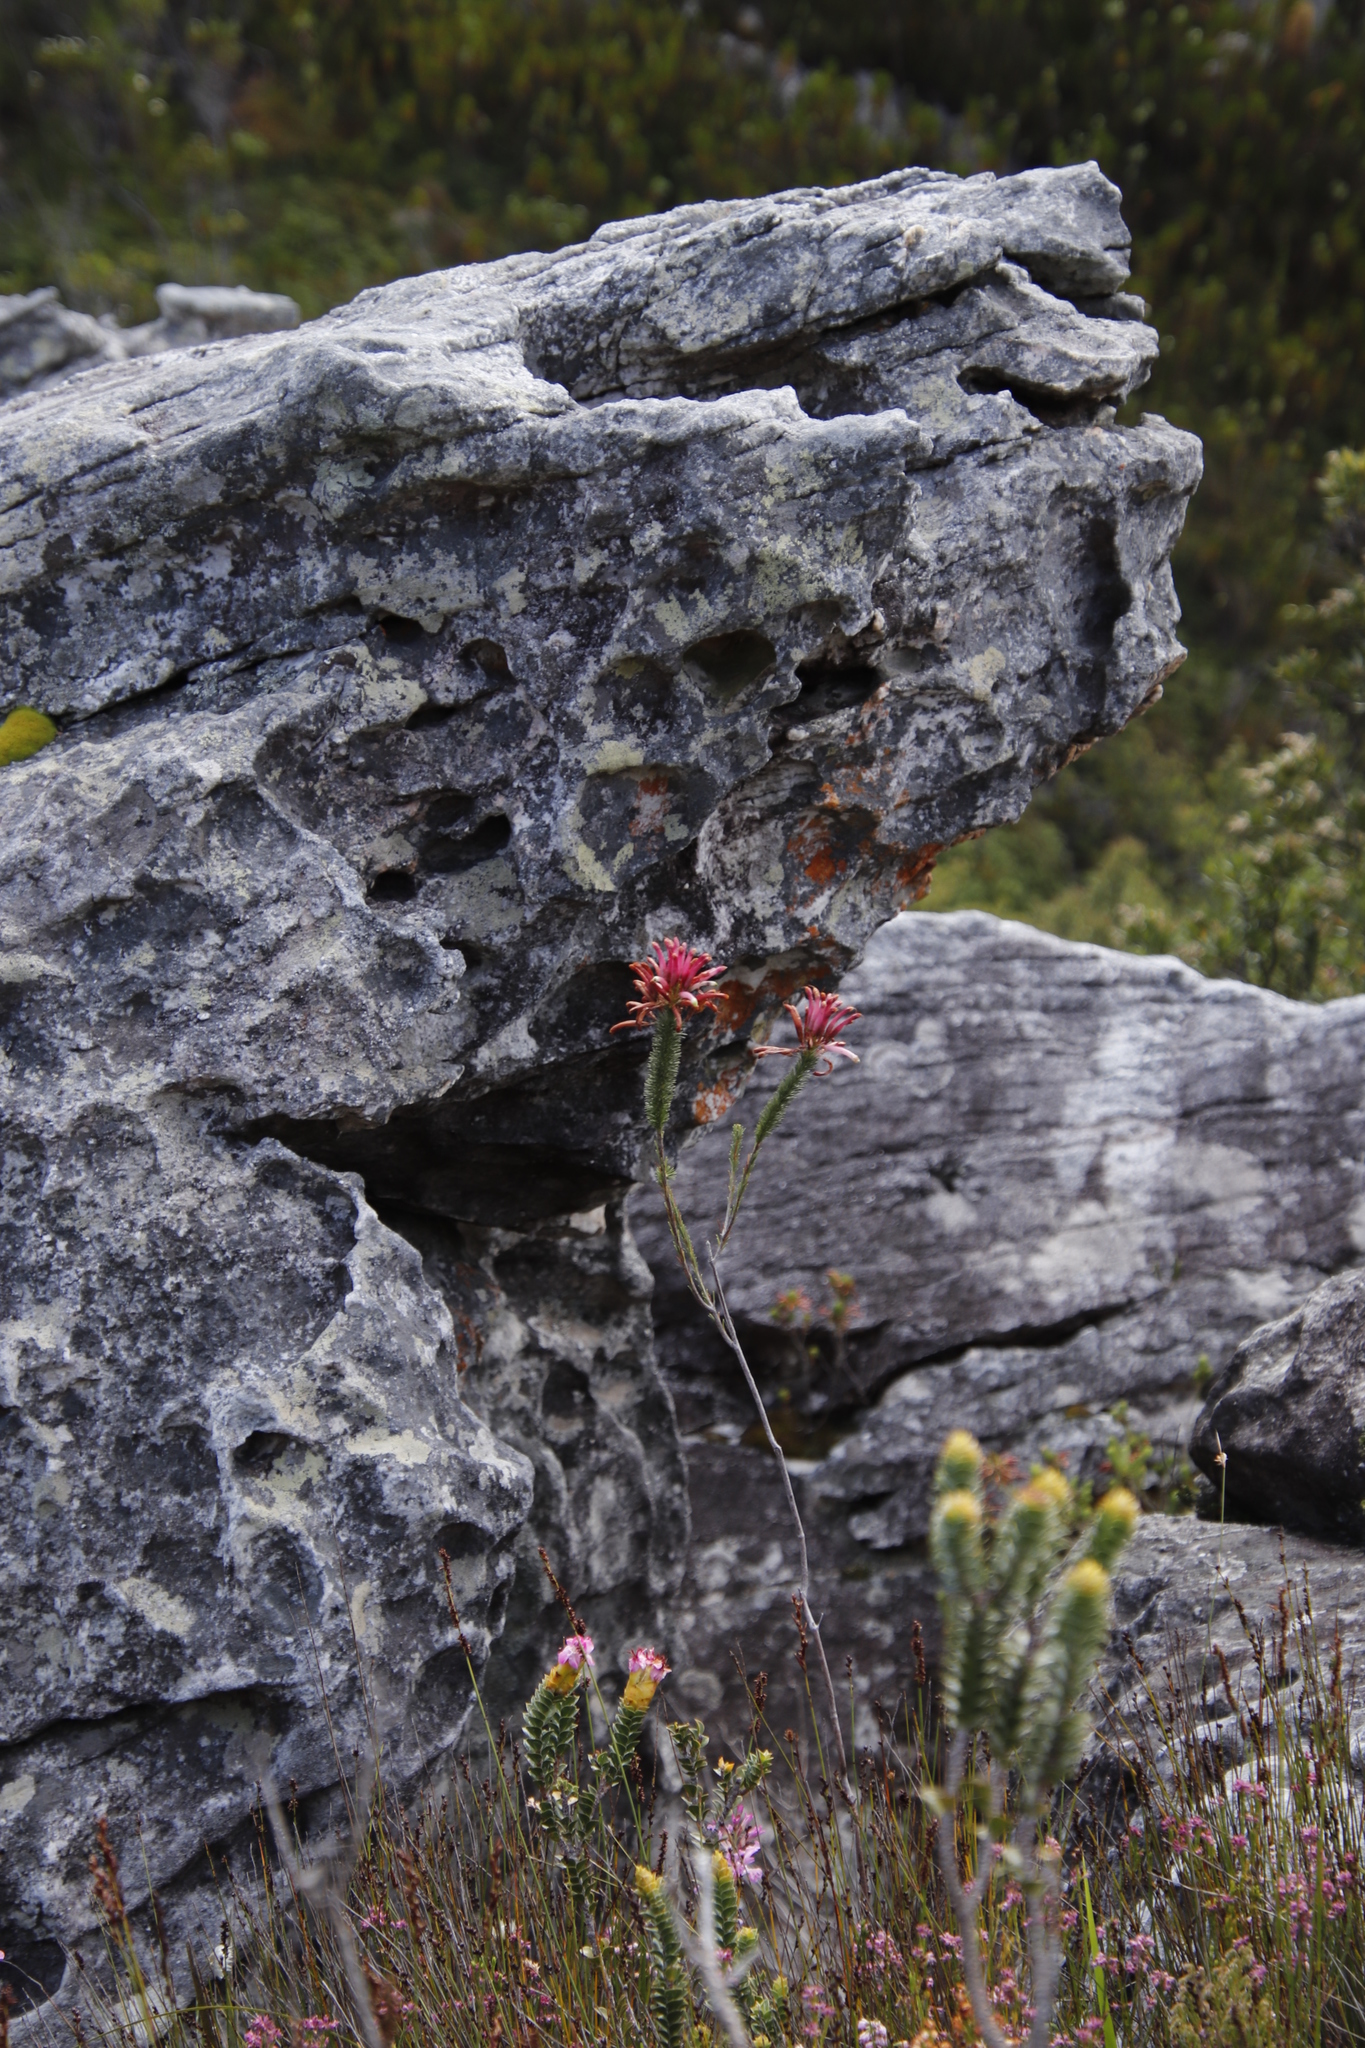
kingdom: Plantae
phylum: Tracheophyta
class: Magnoliopsida
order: Ericales
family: Ericaceae
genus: Erica
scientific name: Erica fascicularis
